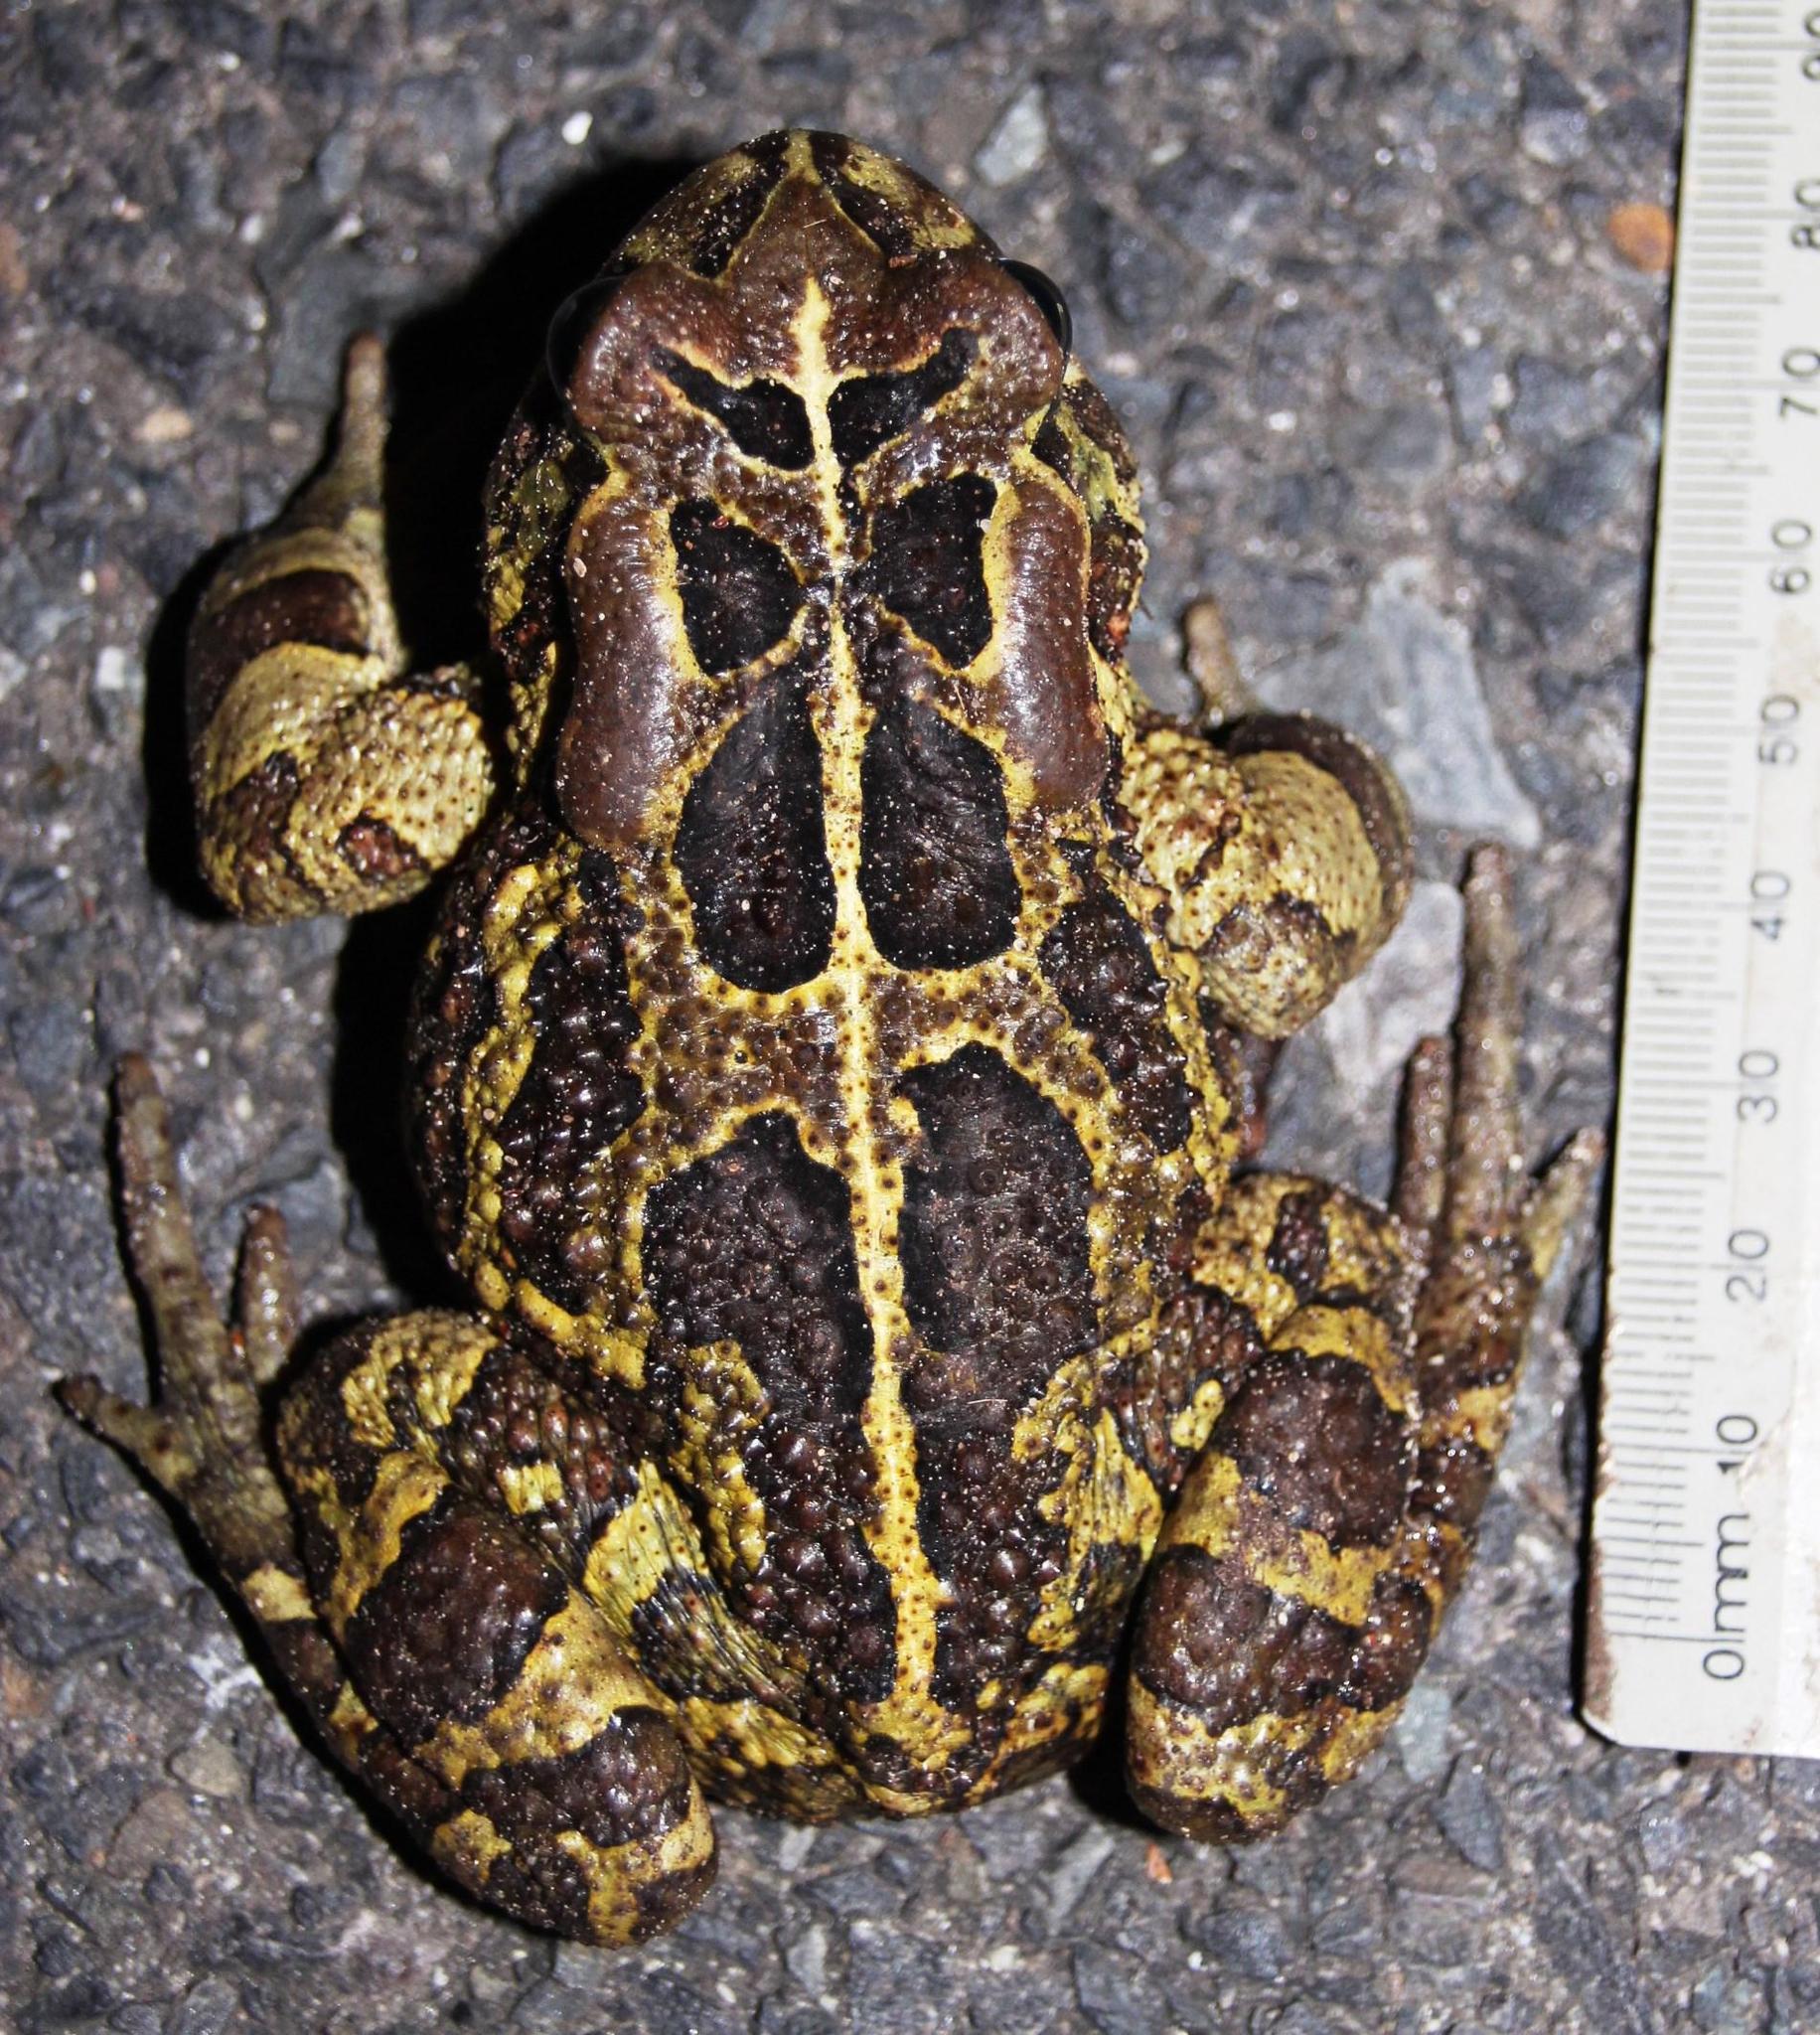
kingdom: Animalia
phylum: Chordata
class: Amphibia
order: Anura
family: Bufonidae
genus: Sclerophrys
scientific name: Sclerophrys pantherina
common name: Panther toad
